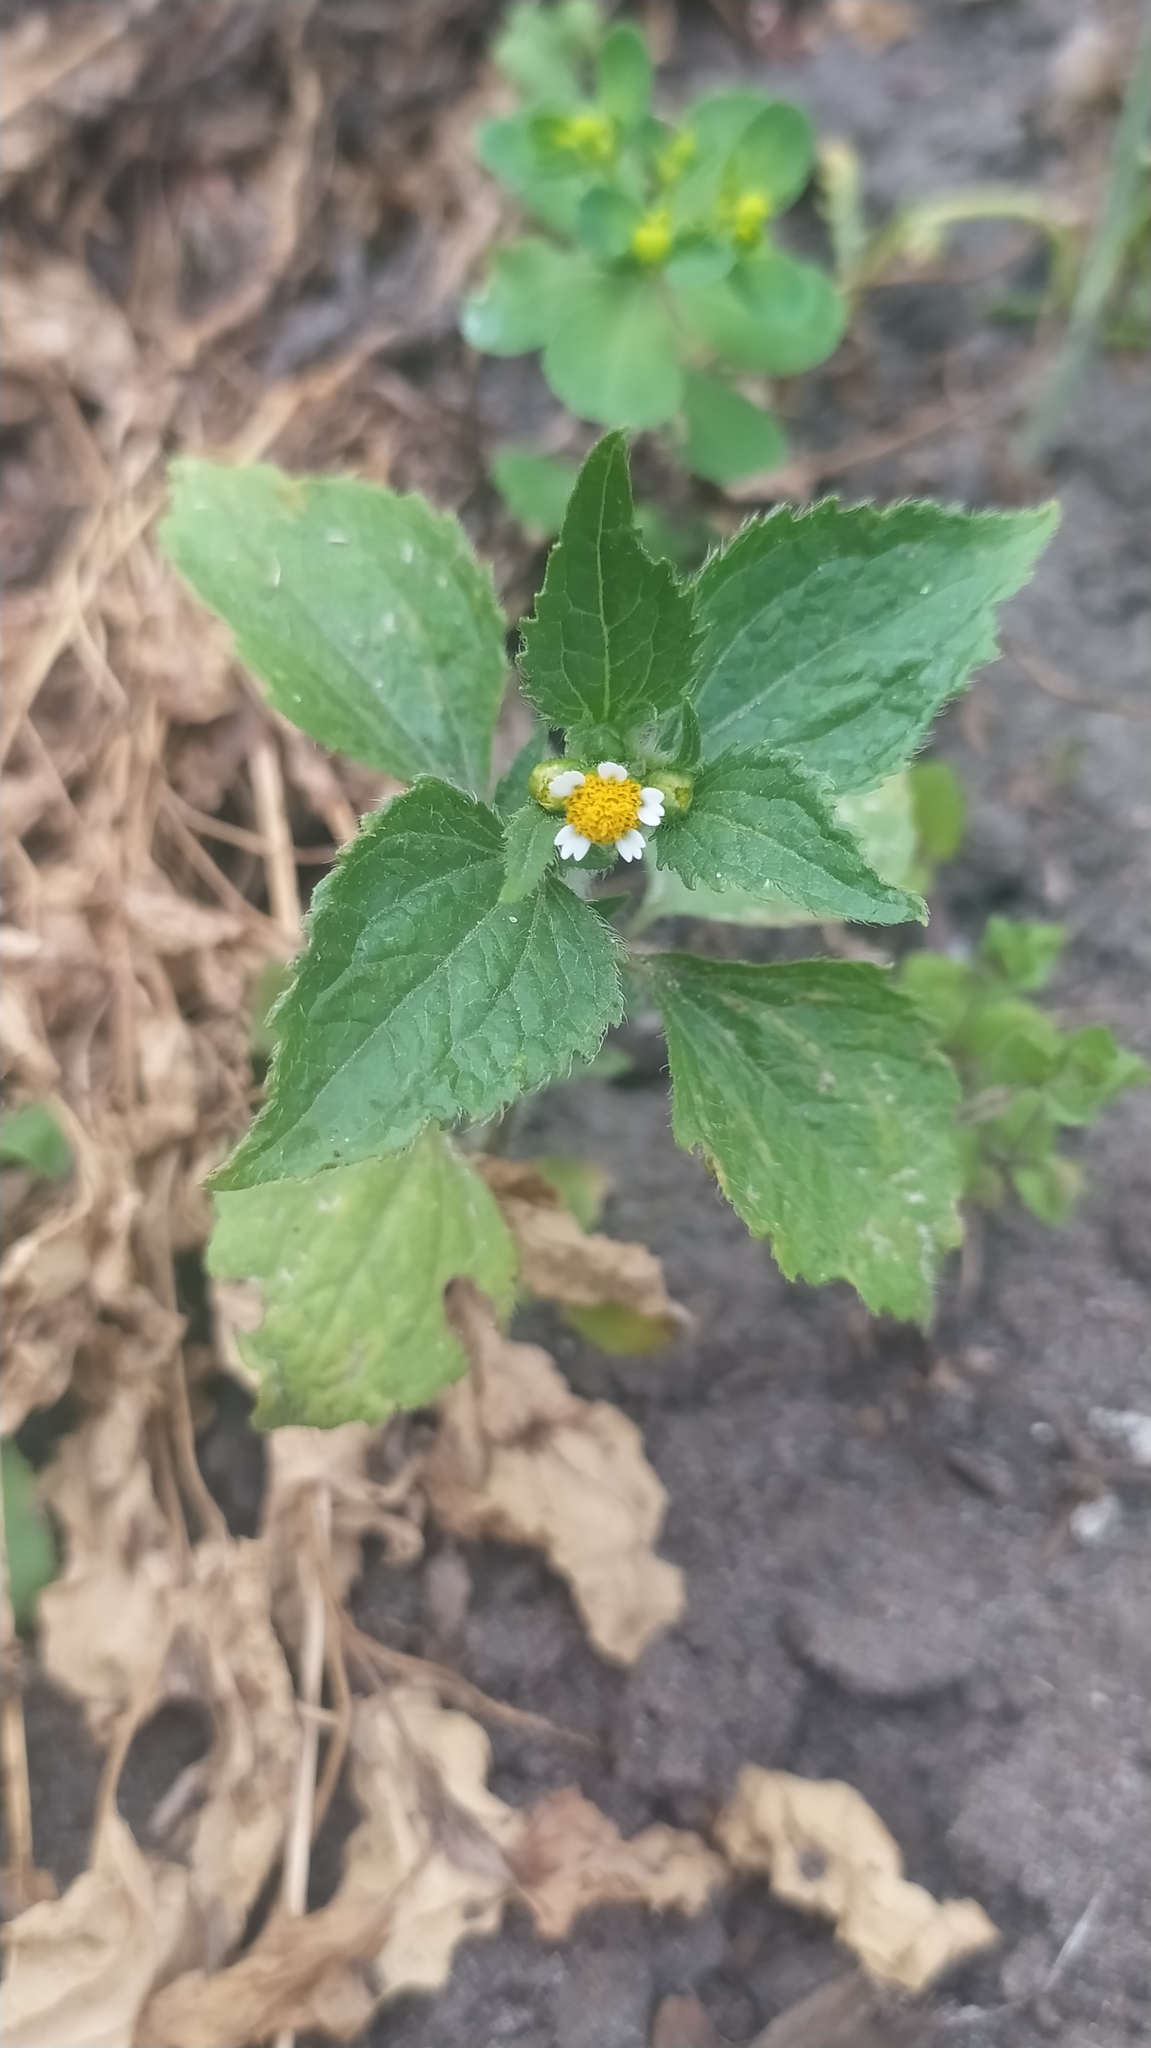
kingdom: Plantae
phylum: Tracheophyta
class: Magnoliopsida
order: Asterales
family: Asteraceae
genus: Galinsoga
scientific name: Galinsoga quadriradiata
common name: Shaggy soldier
